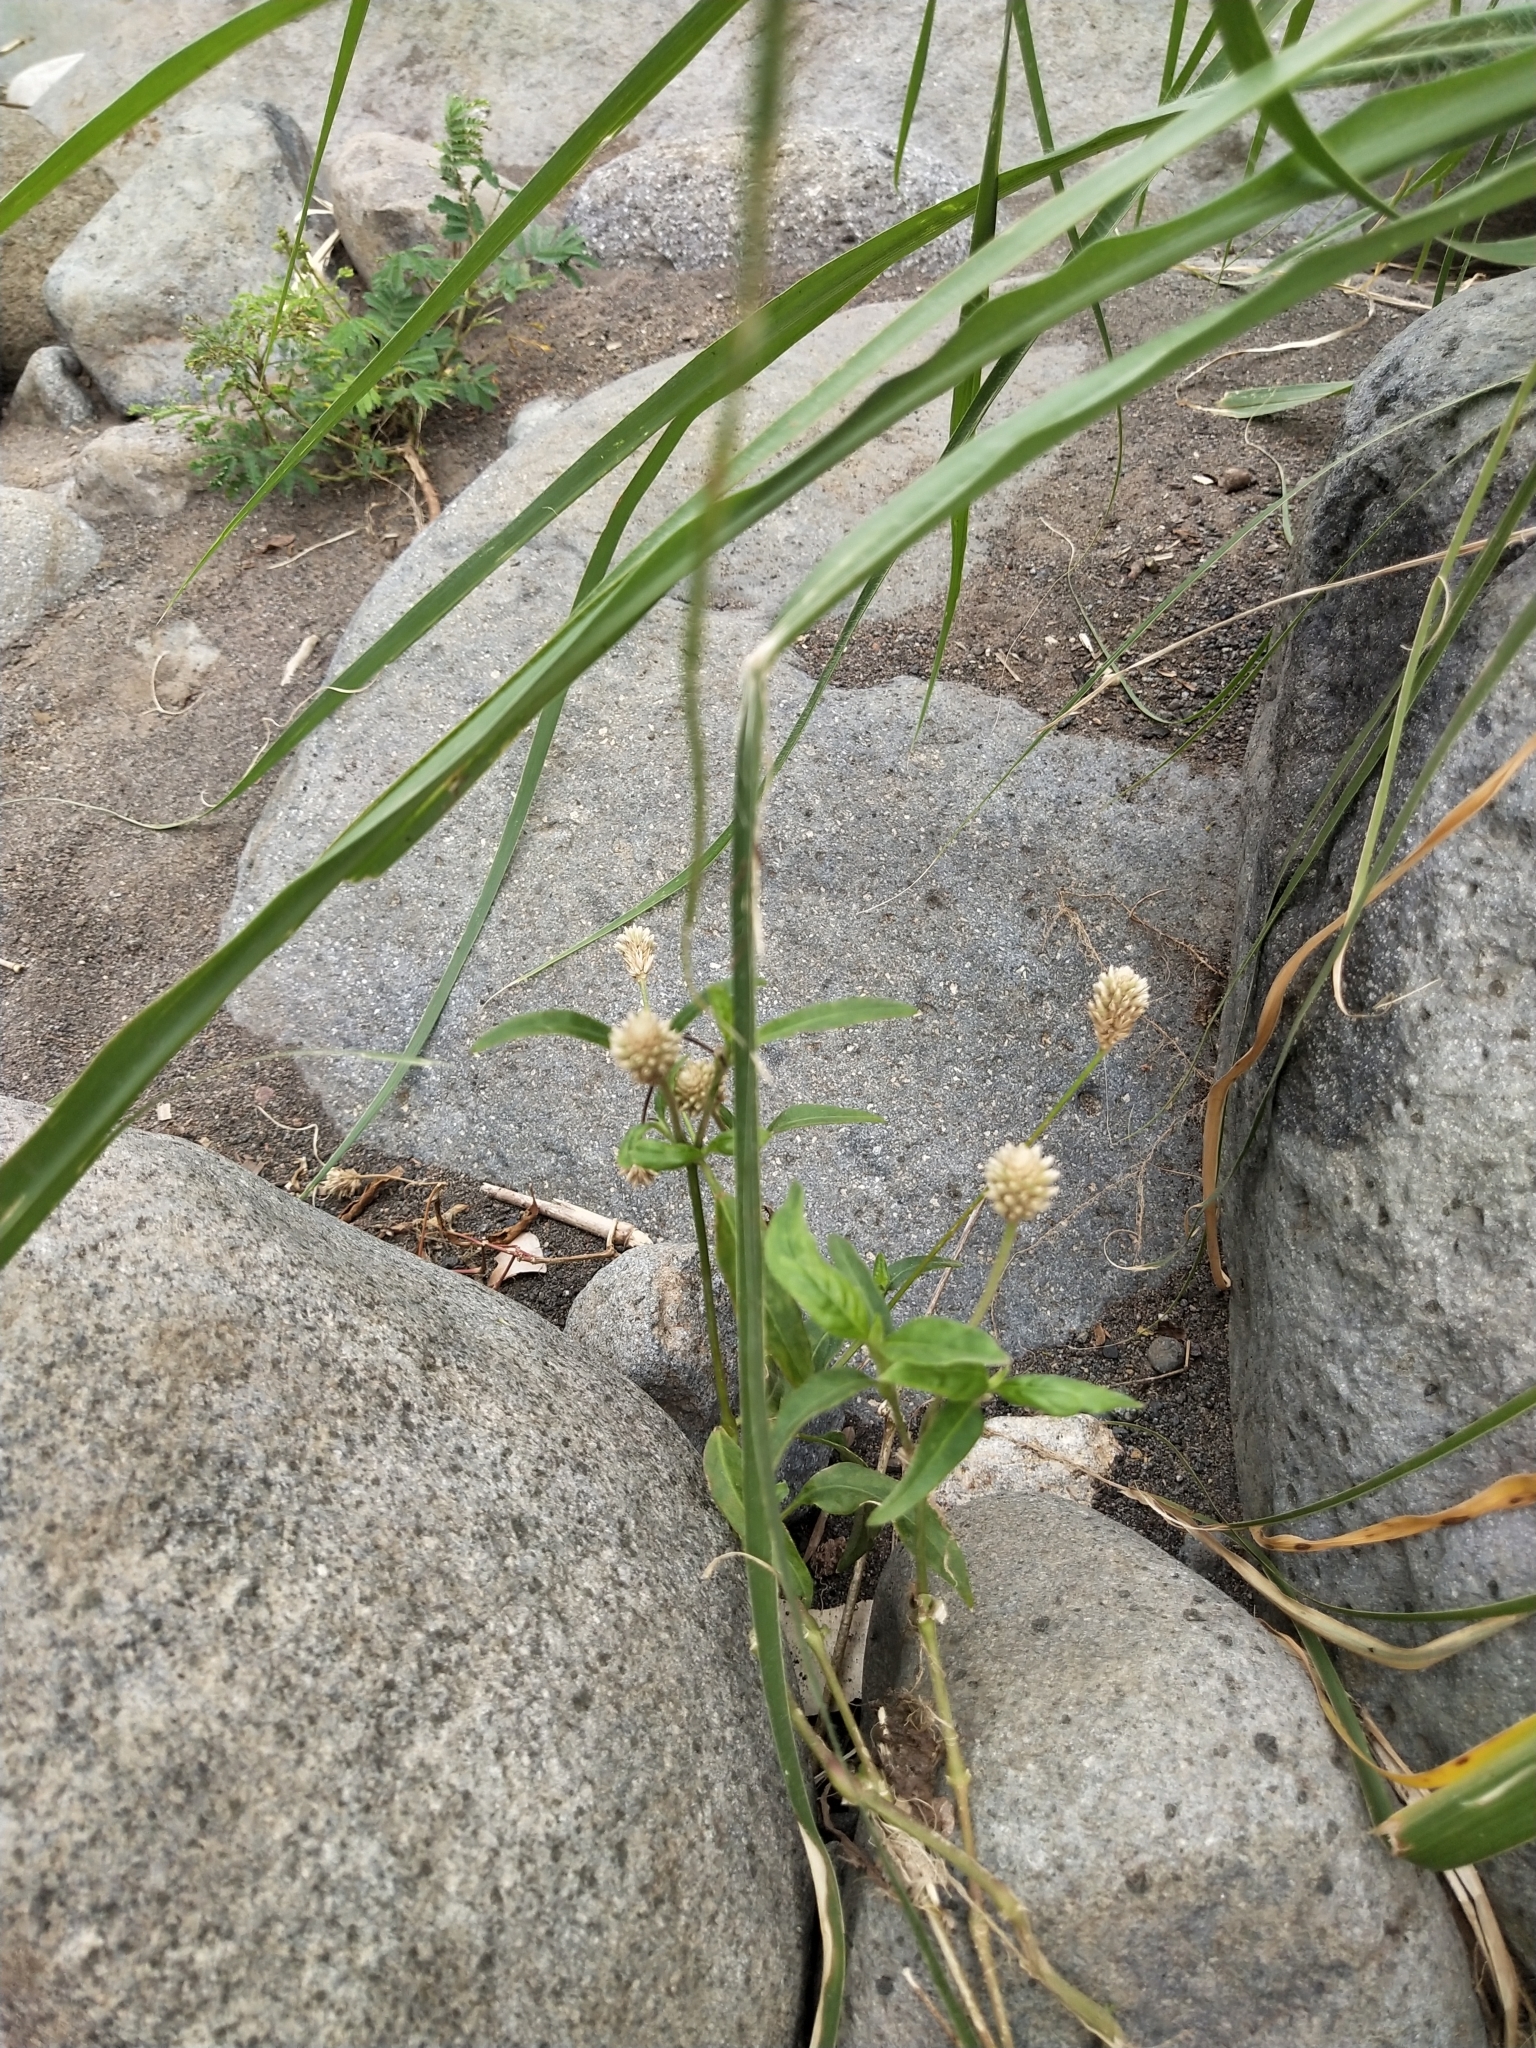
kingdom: Plantae
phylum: Tracheophyta
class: Magnoliopsida
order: Caryophyllales
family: Amaranthaceae
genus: Alternanthera
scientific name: Alternanthera sessilis
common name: Sessile joyweed
